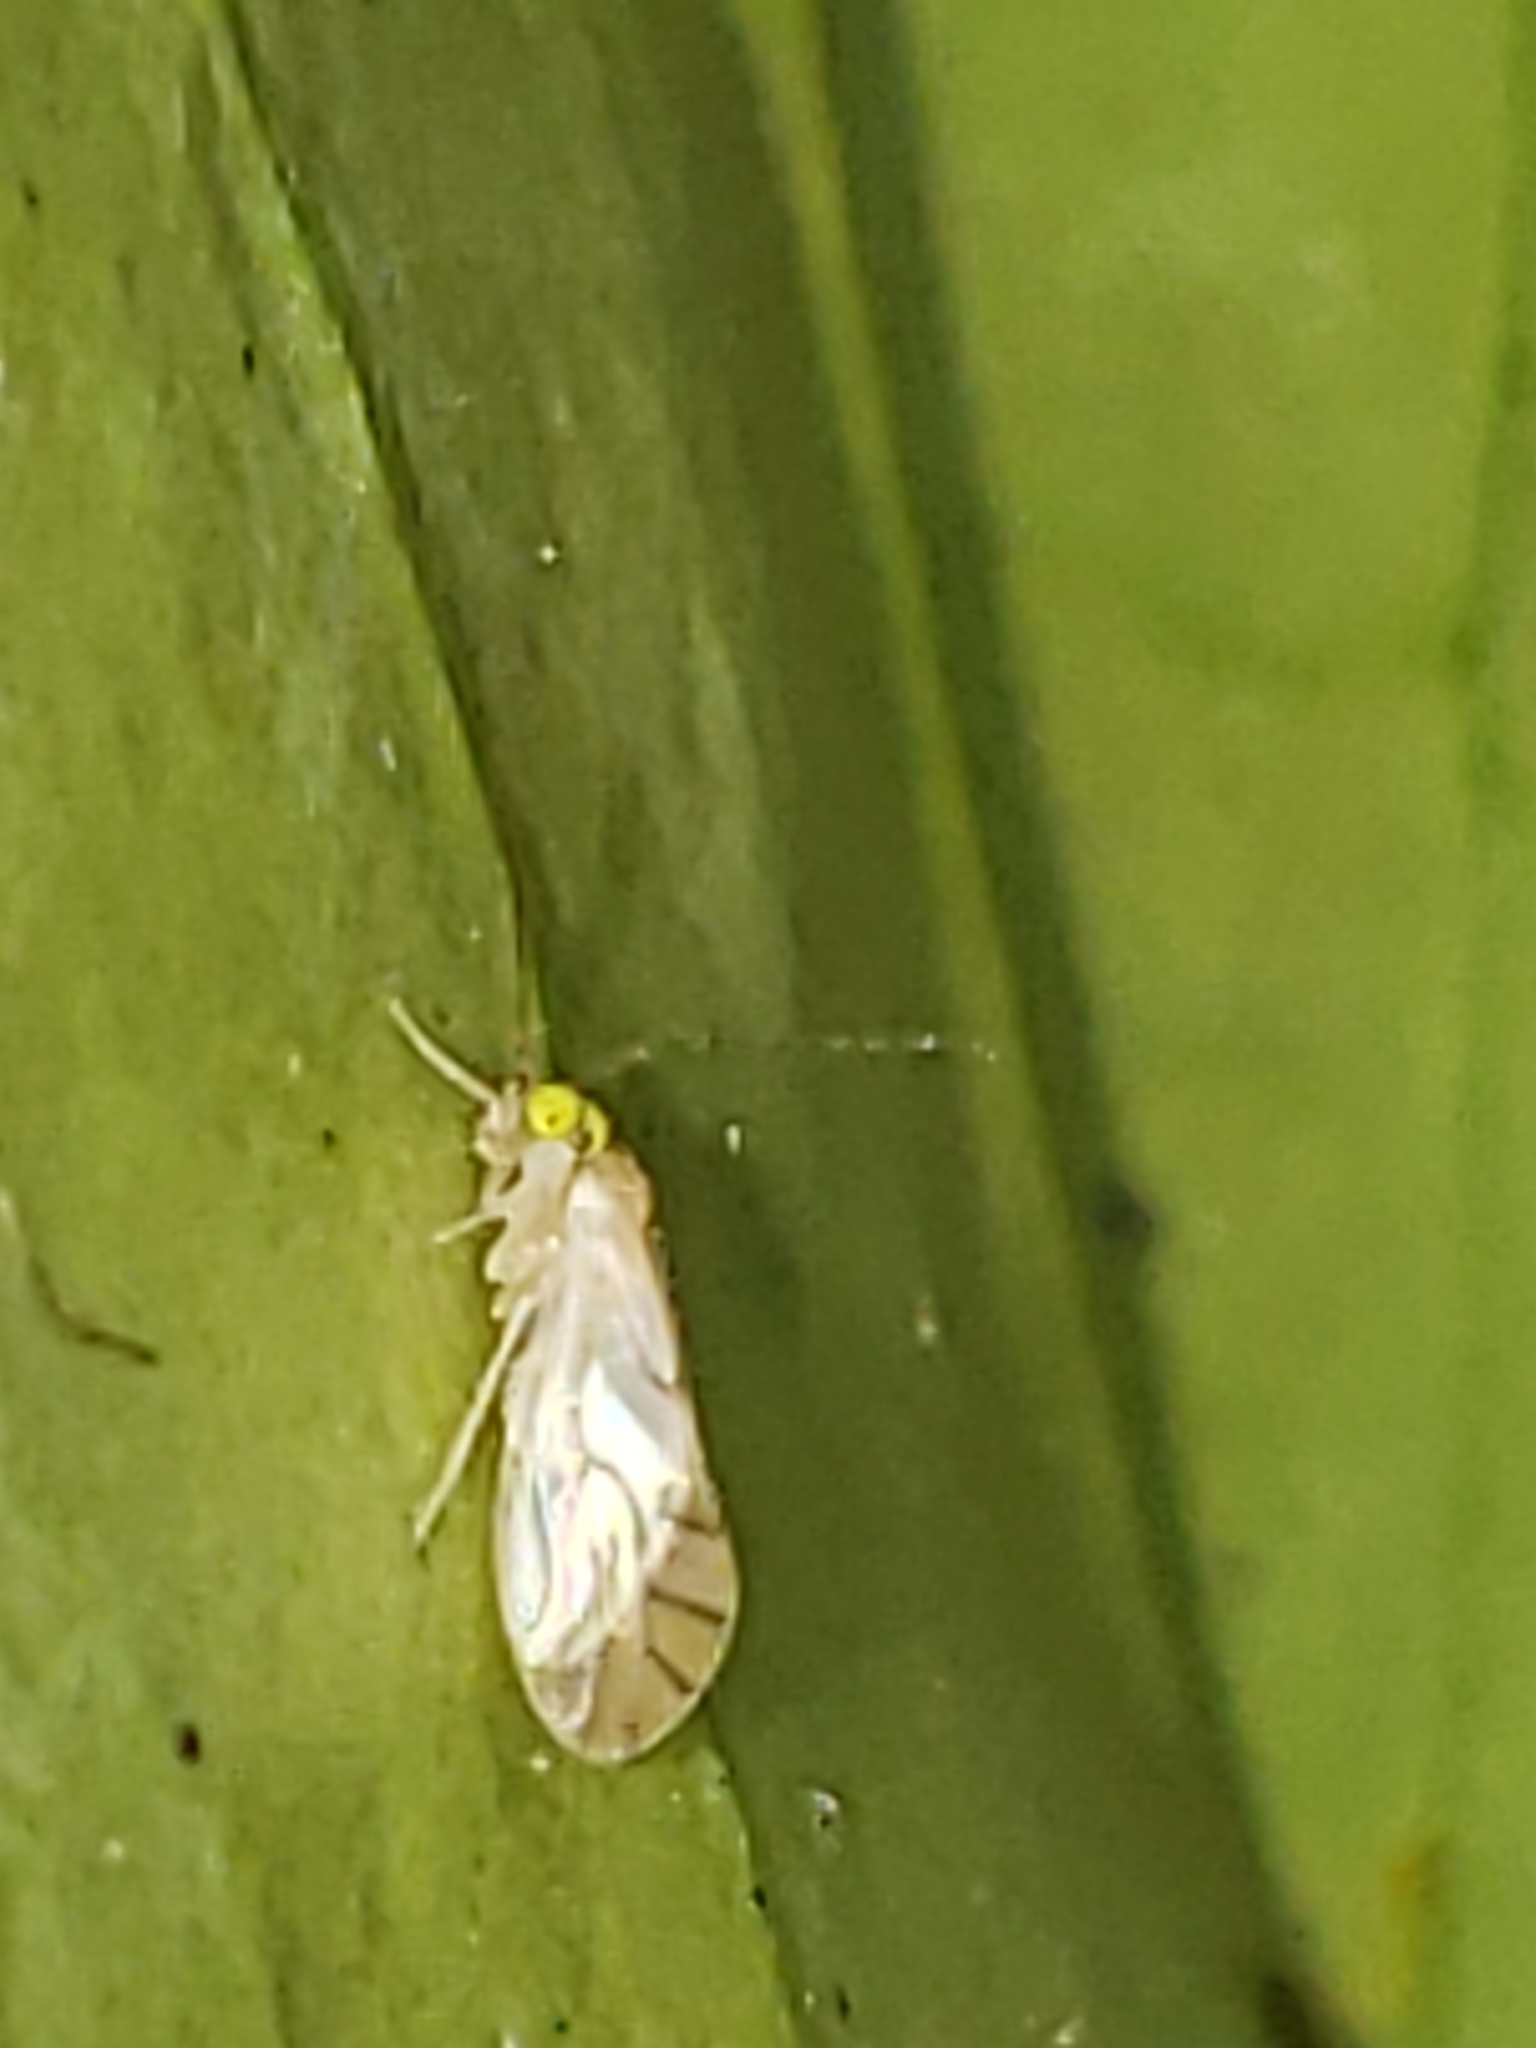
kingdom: Animalia
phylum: Arthropoda
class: Insecta
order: Psocodea
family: Paracaeciliidae
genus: Xanthocaecilius
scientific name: Xanthocaecilius sommermanae
